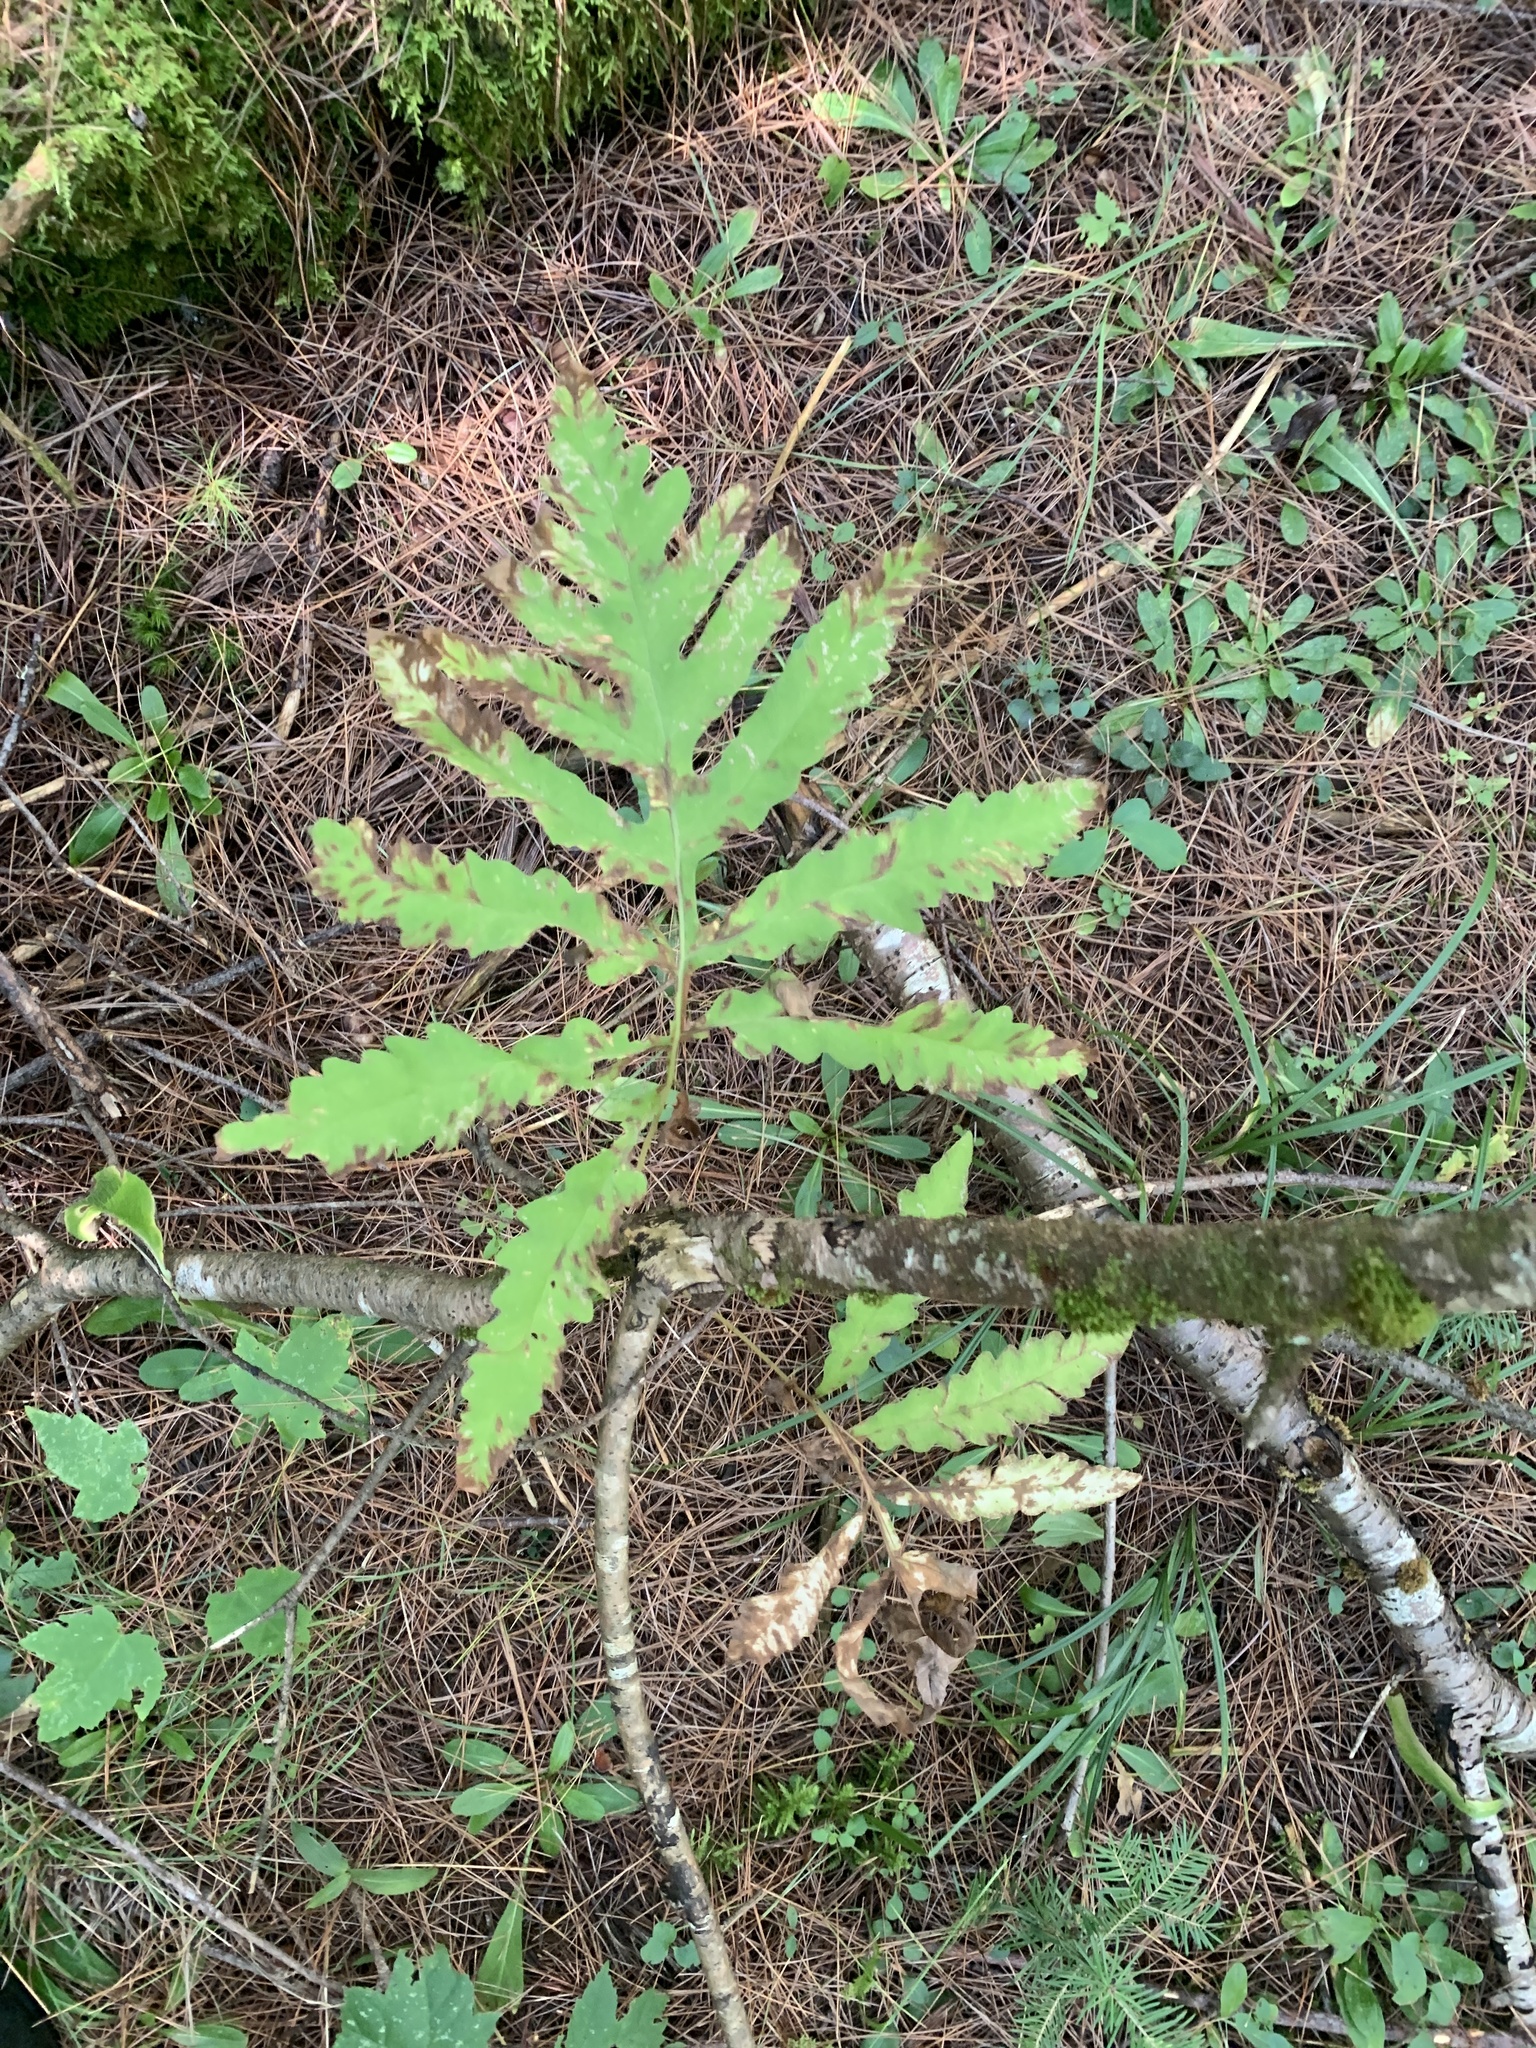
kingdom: Plantae
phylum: Tracheophyta
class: Polypodiopsida
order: Polypodiales
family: Onocleaceae
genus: Onoclea
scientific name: Onoclea sensibilis
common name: Sensitive fern
